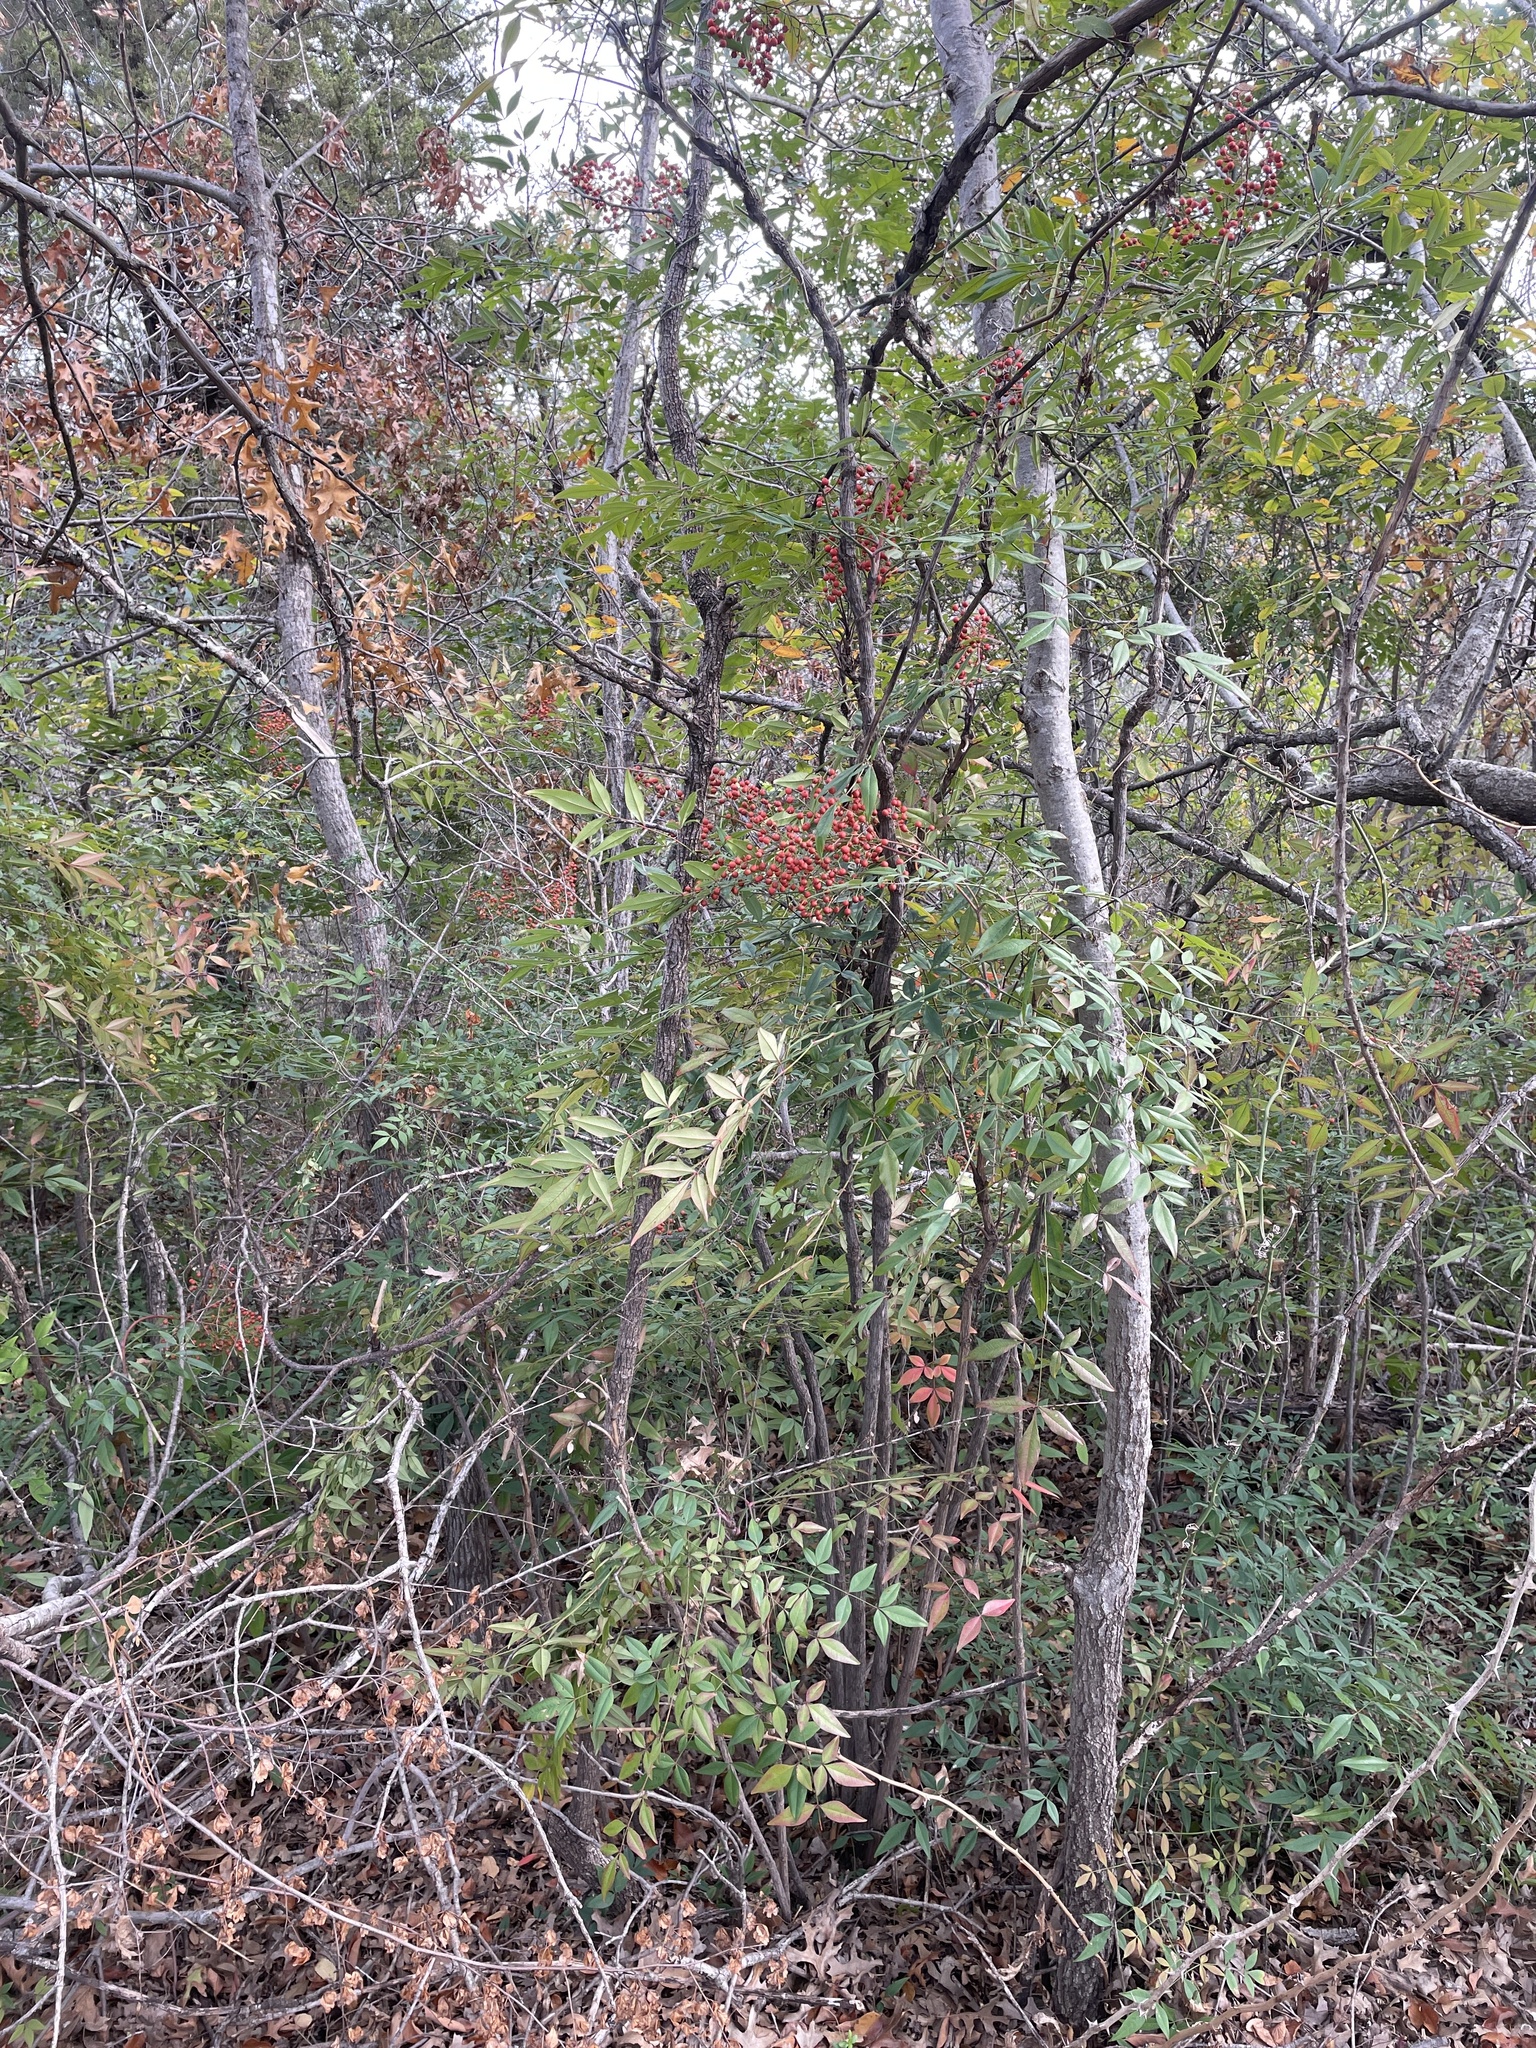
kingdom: Plantae
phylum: Tracheophyta
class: Magnoliopsida
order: Ranunculales
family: Berberidaceae
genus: Nandina
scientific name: Nandina domestica
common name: Sacred bamboo
